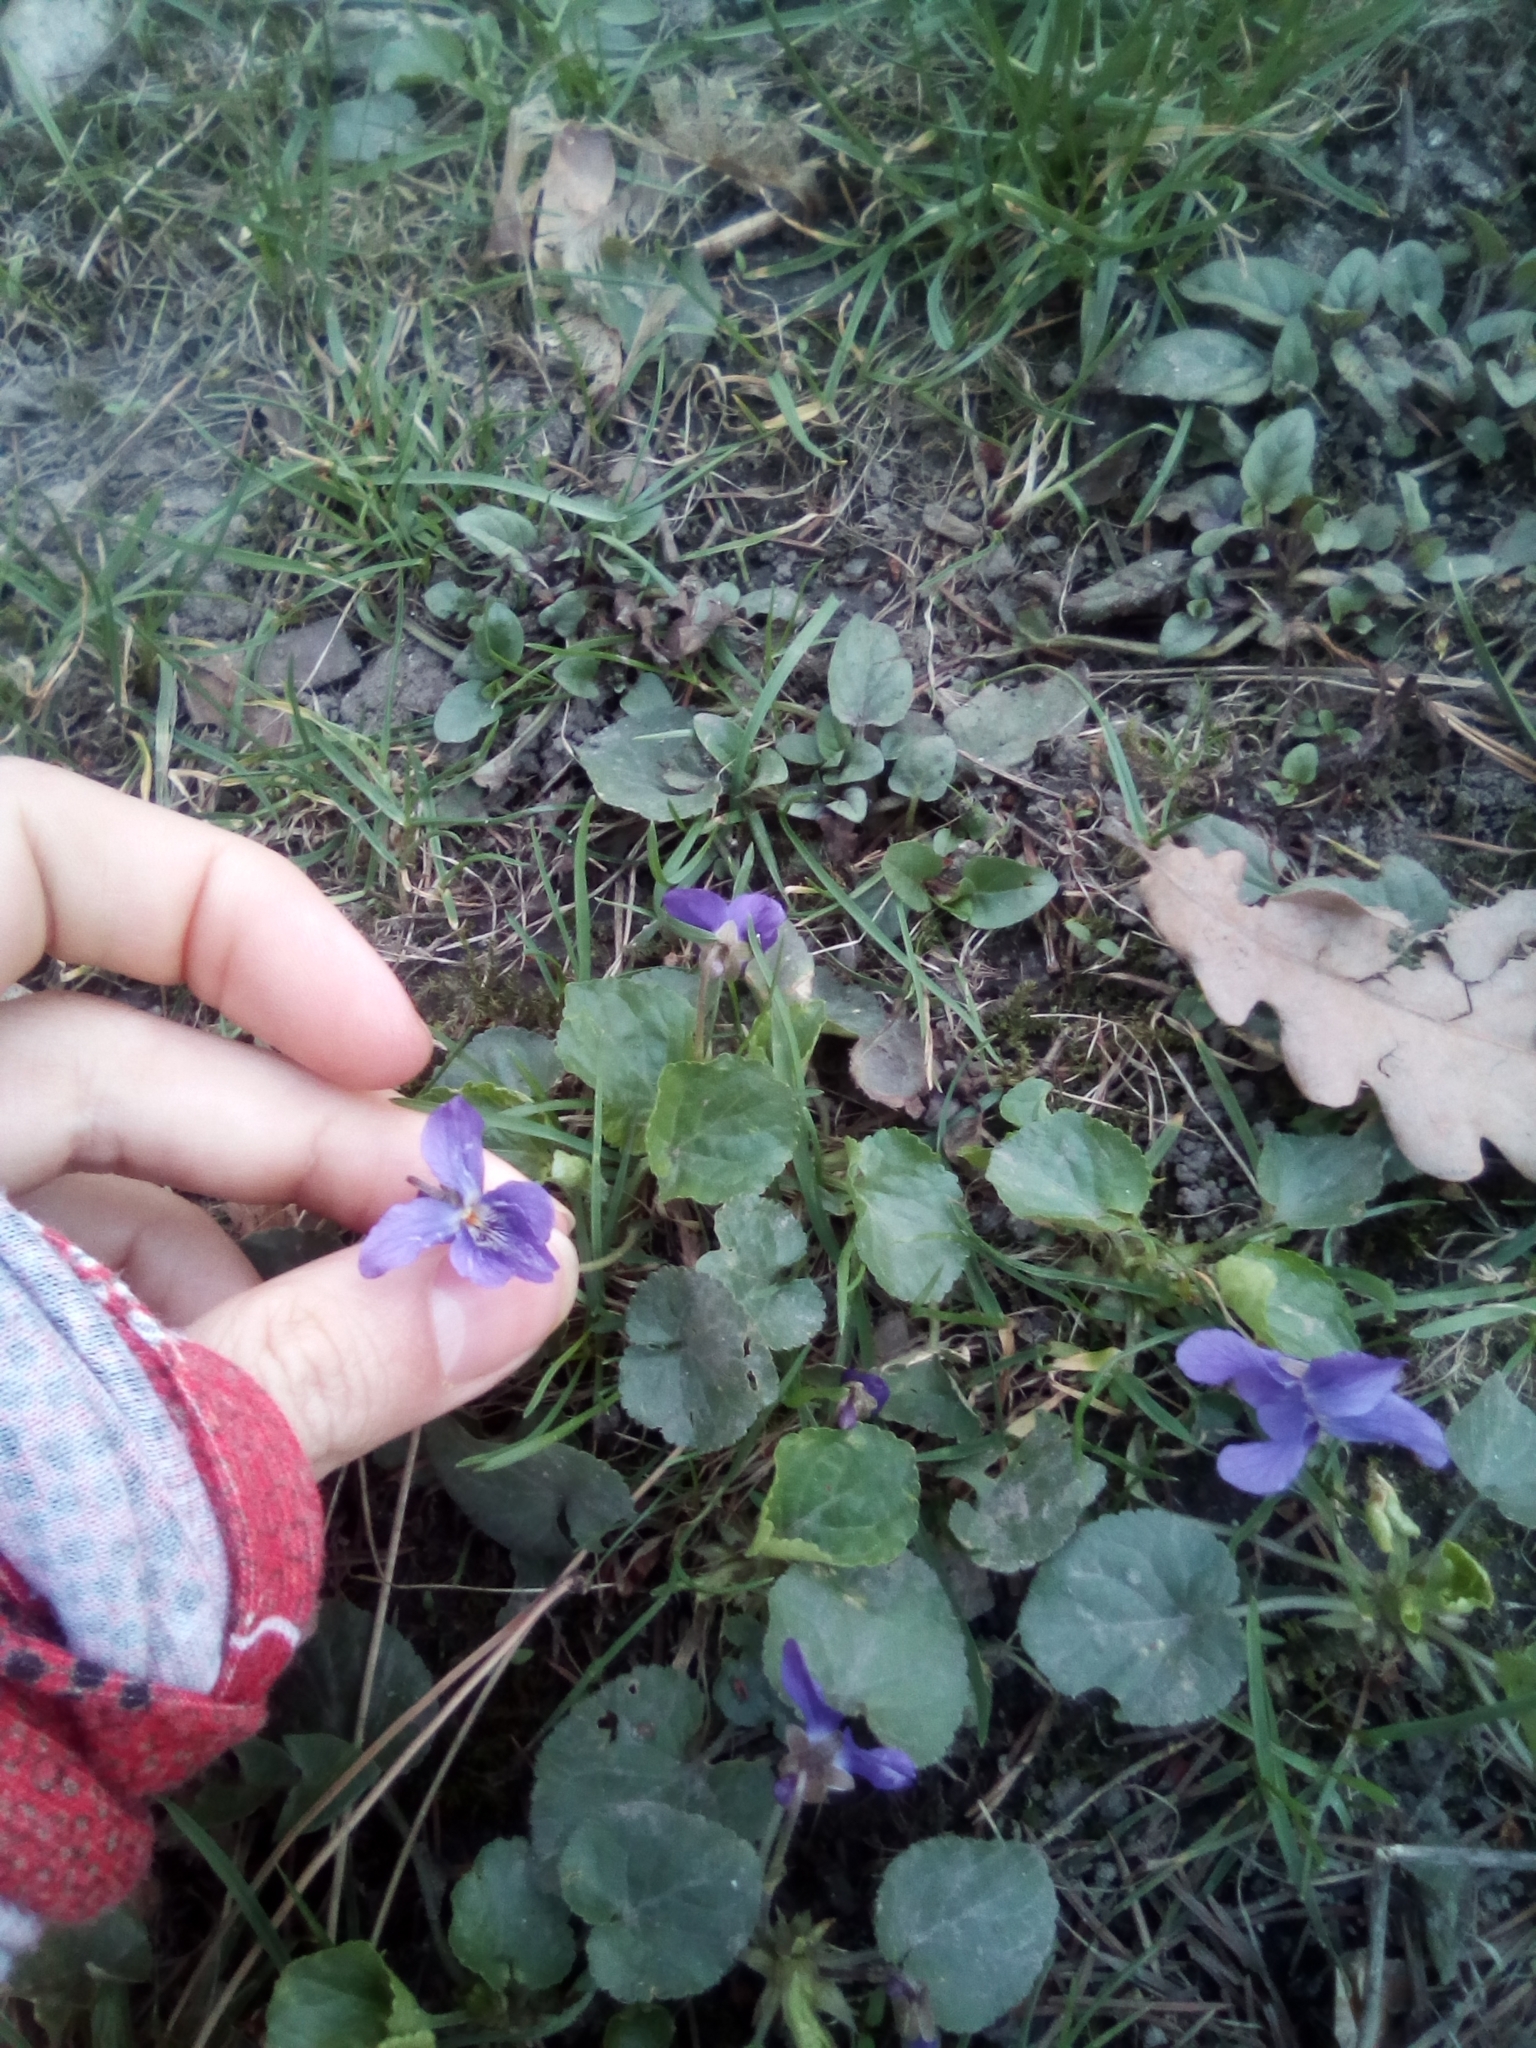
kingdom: Plantae
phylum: Tracheophyta
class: Magnoliopsida
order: Malpighiales
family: Violaceae
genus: Viola
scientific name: Viola odorata
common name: Sweet violet
